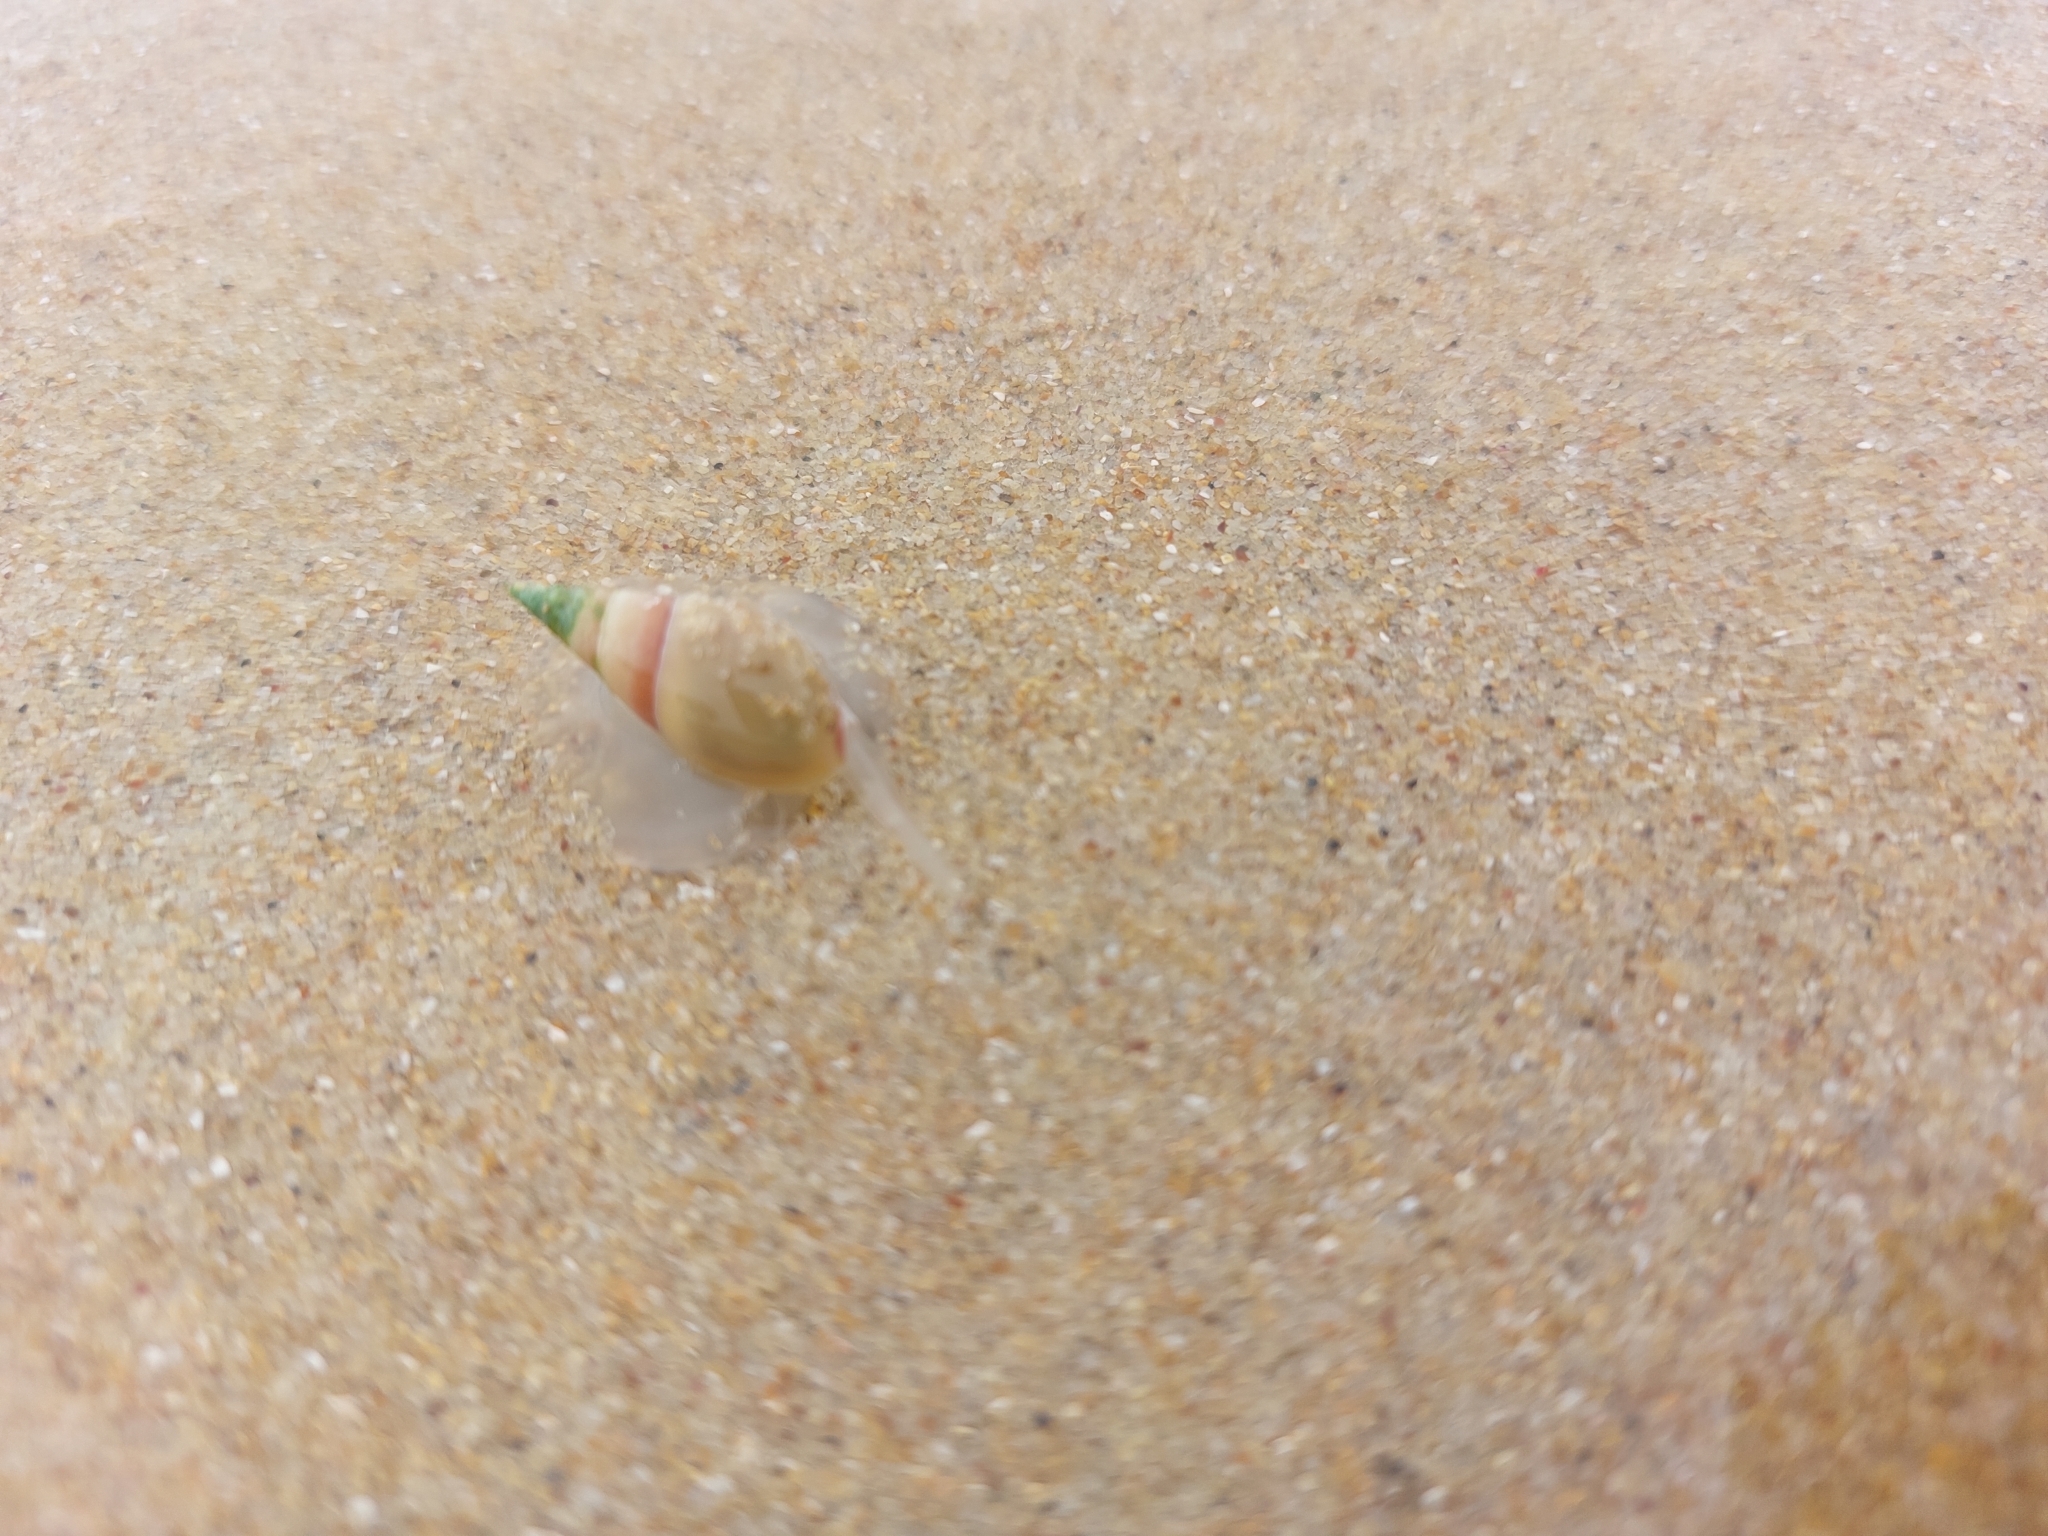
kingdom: Animalia
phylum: Mollusca
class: Gastropoda
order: Neogastropoda
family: Nassariidae
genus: Bullia
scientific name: Bullia rhodostoma
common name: Smooth plough shell
